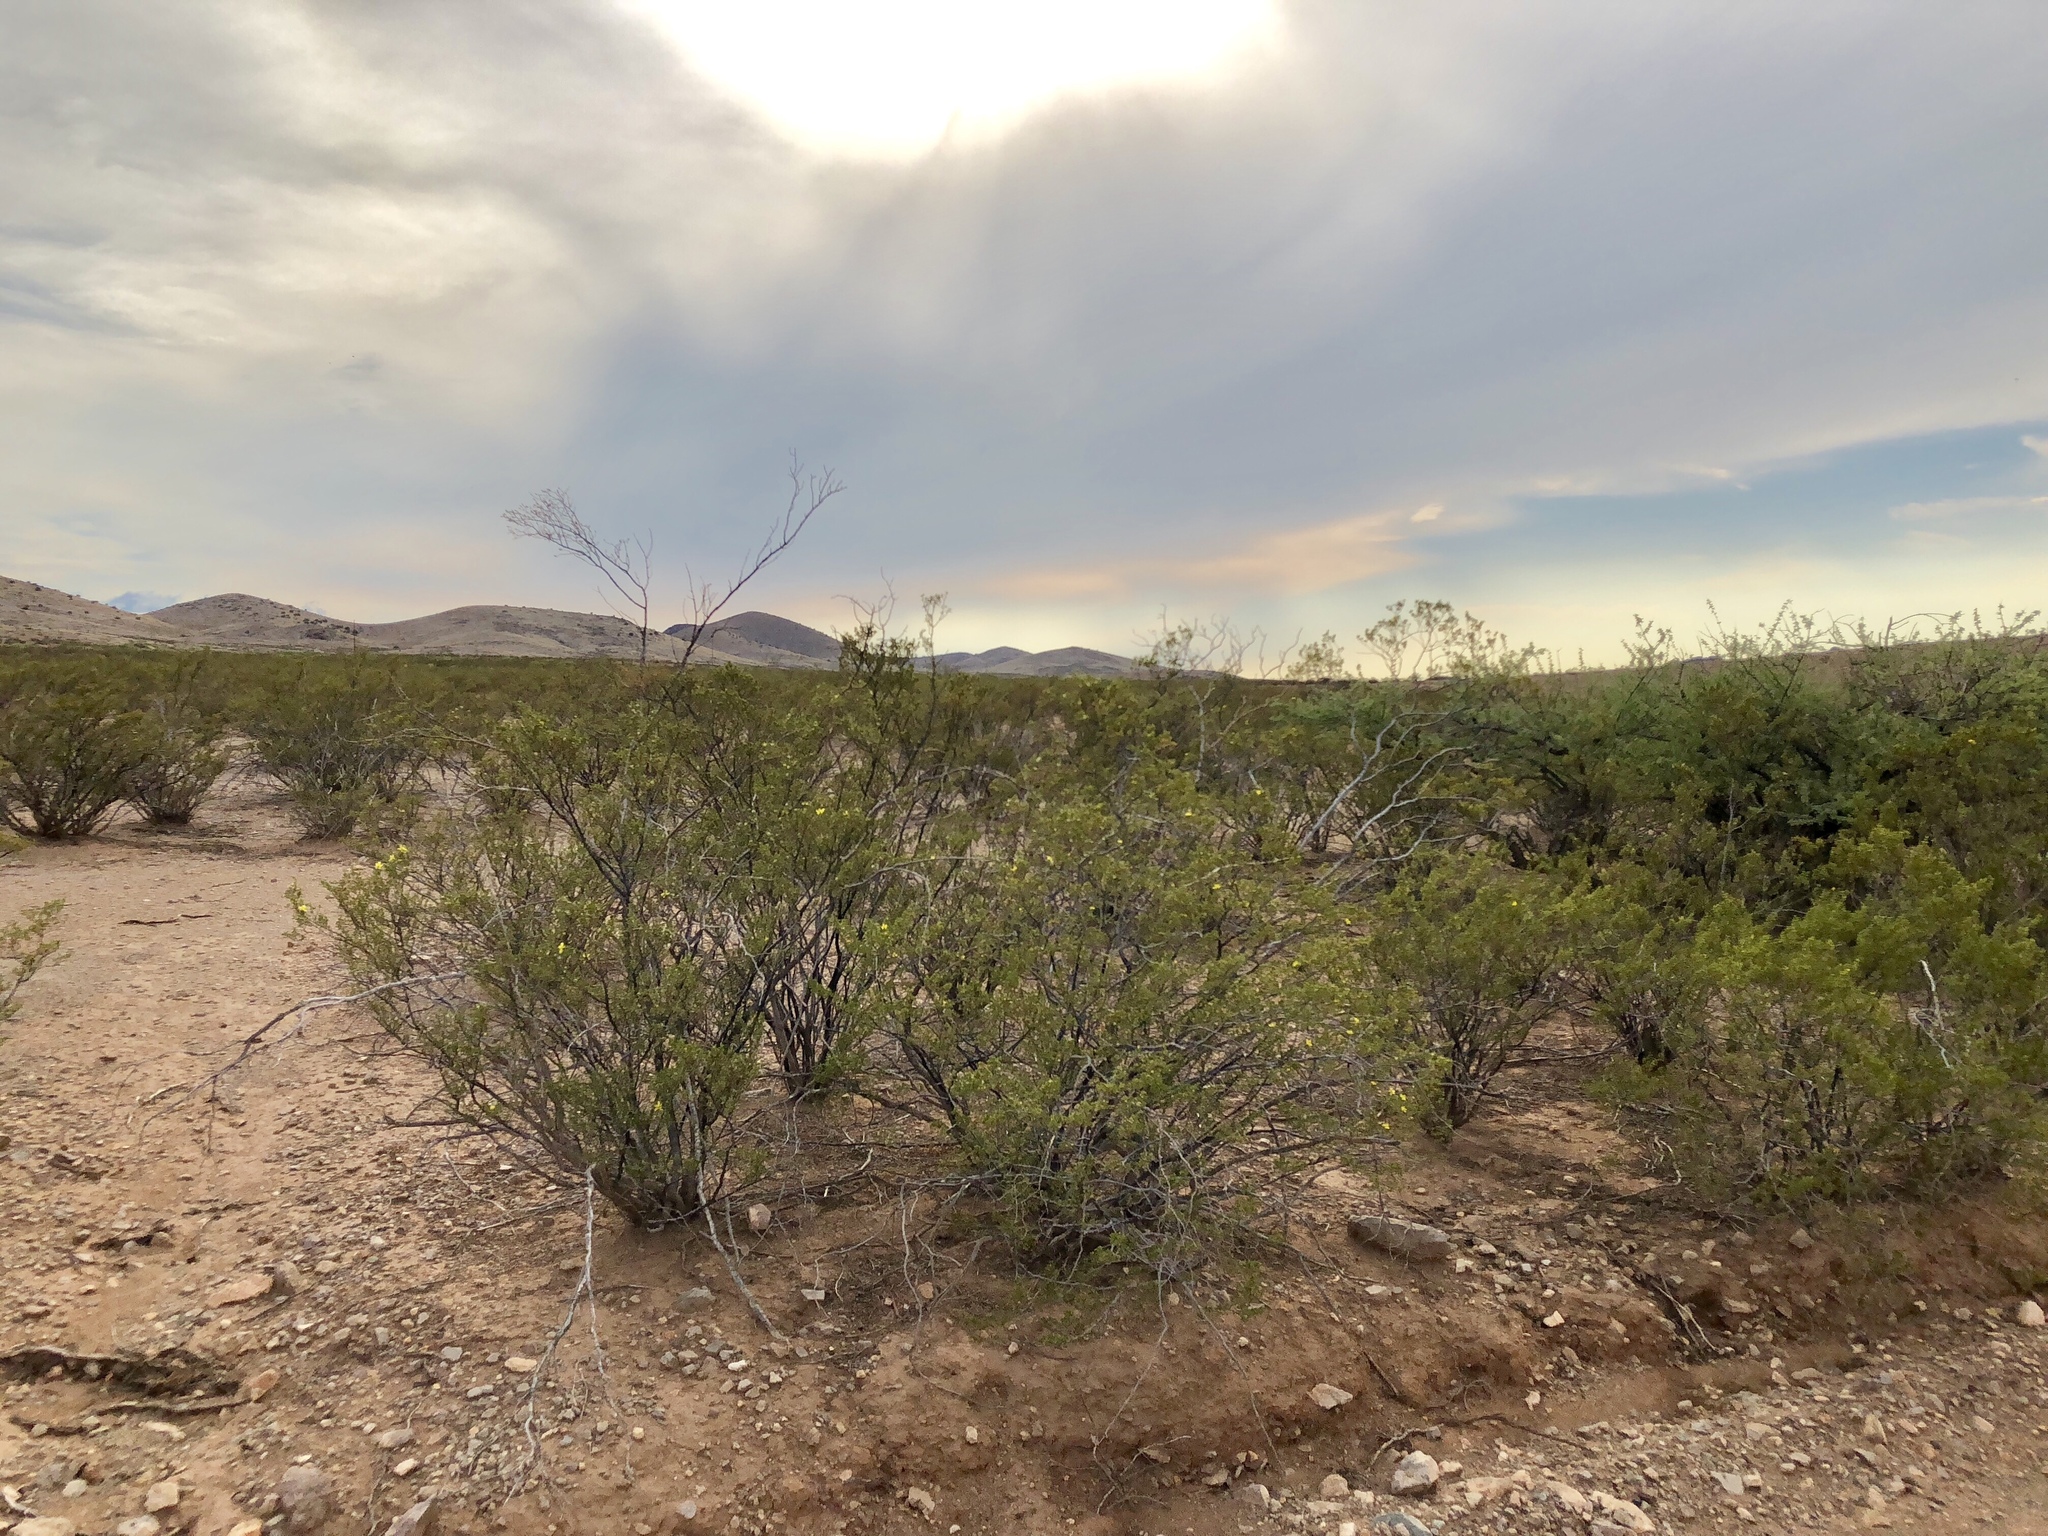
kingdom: Plantae
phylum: Tracheophyta
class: Magnoliopsida
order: Zygophyllales
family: Zygophyllaceae
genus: Larrea
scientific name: Larrea tridentata
